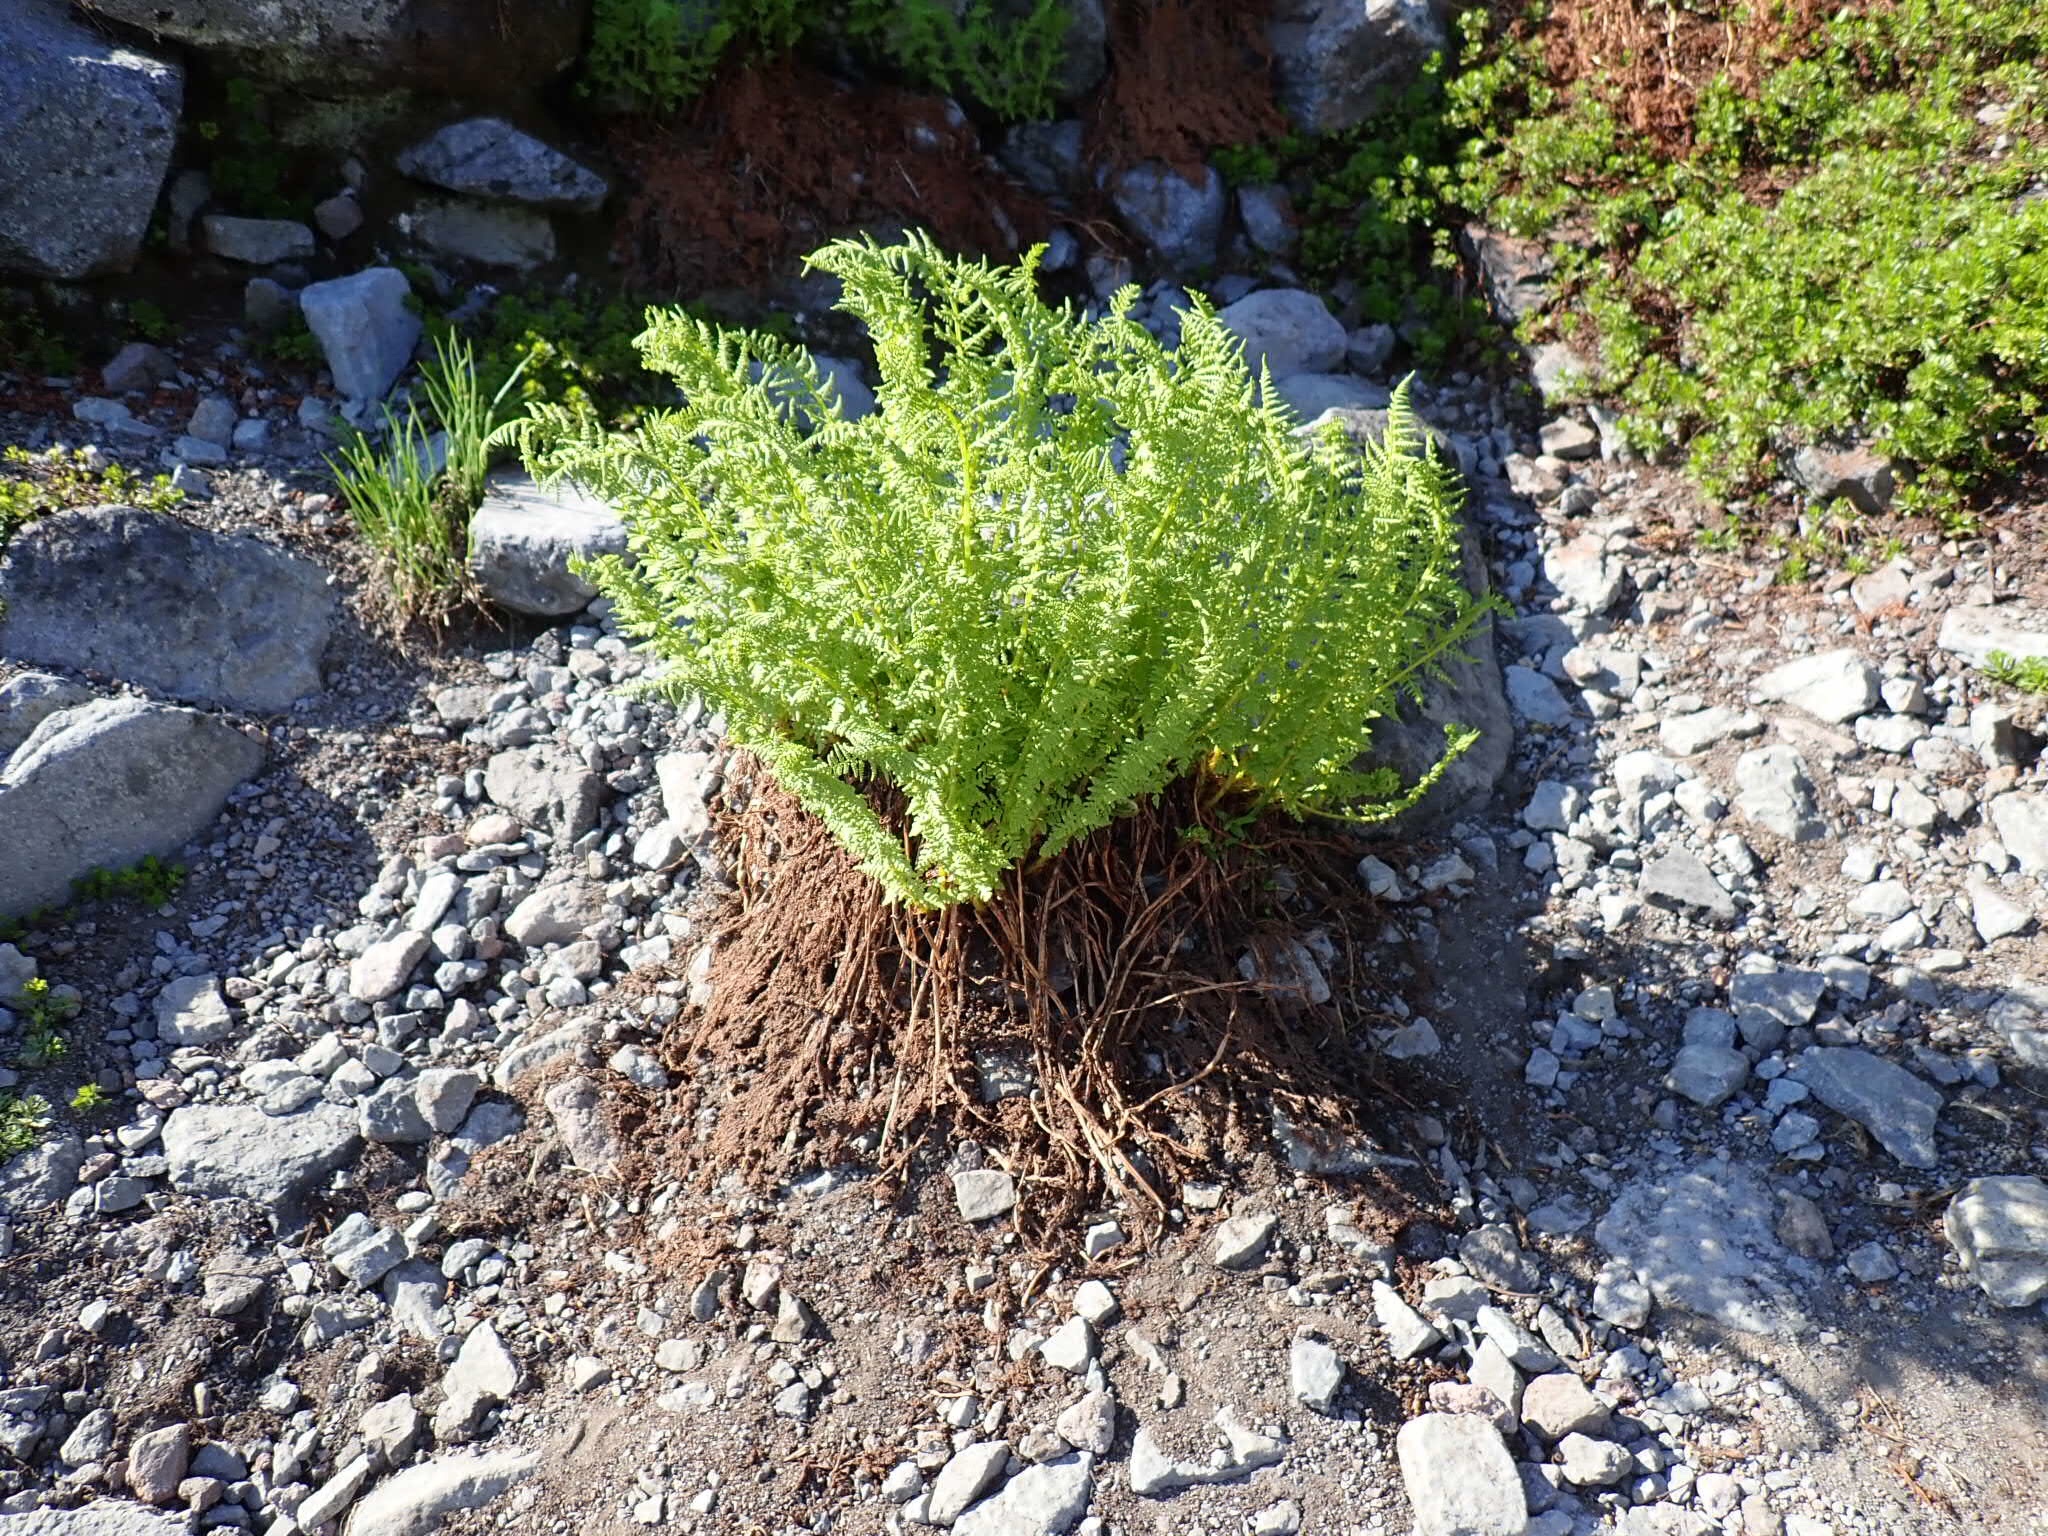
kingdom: Plantae
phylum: Tracheophyta
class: Polypodiopsida
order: Polypodiales
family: Athyriaceae
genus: Athyrium
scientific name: Athyrium americanum
